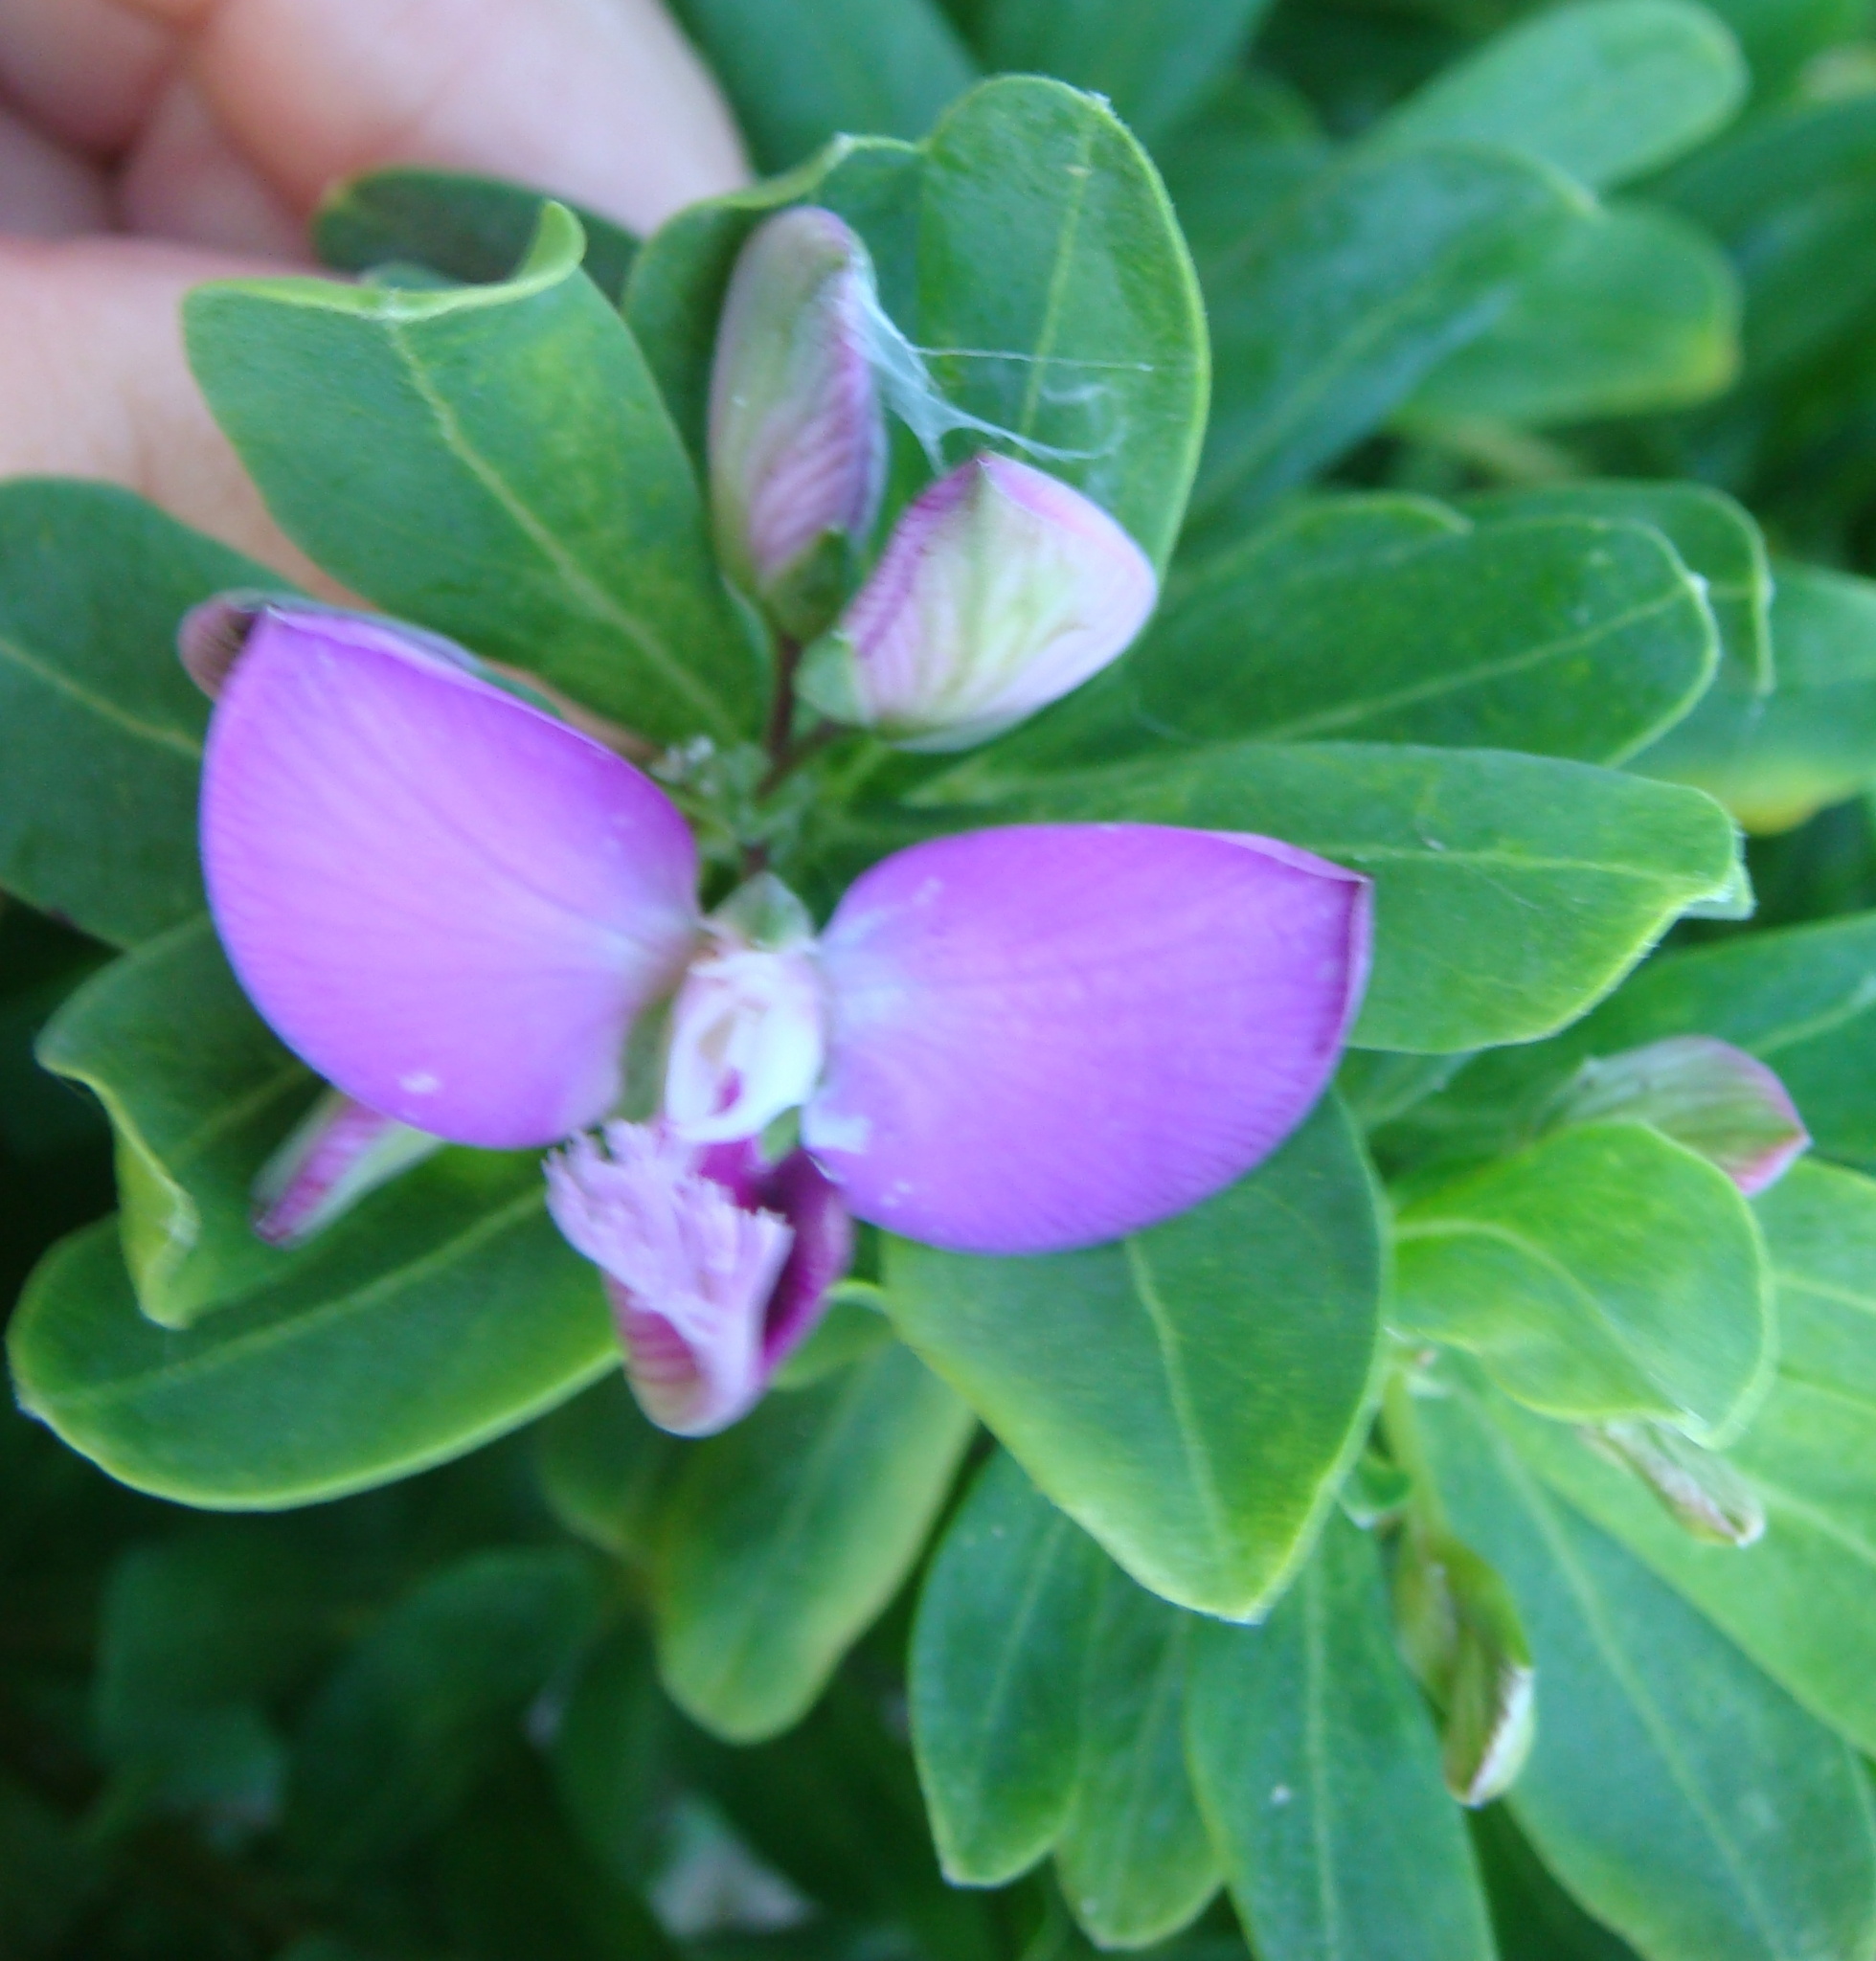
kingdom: Plantae
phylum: Tracheophyta
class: Magnoliopsida
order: Fabales
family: Polygalaceae
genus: Polygala
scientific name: Polygala myrtifolia
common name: Myrtle-leaf milkwort
